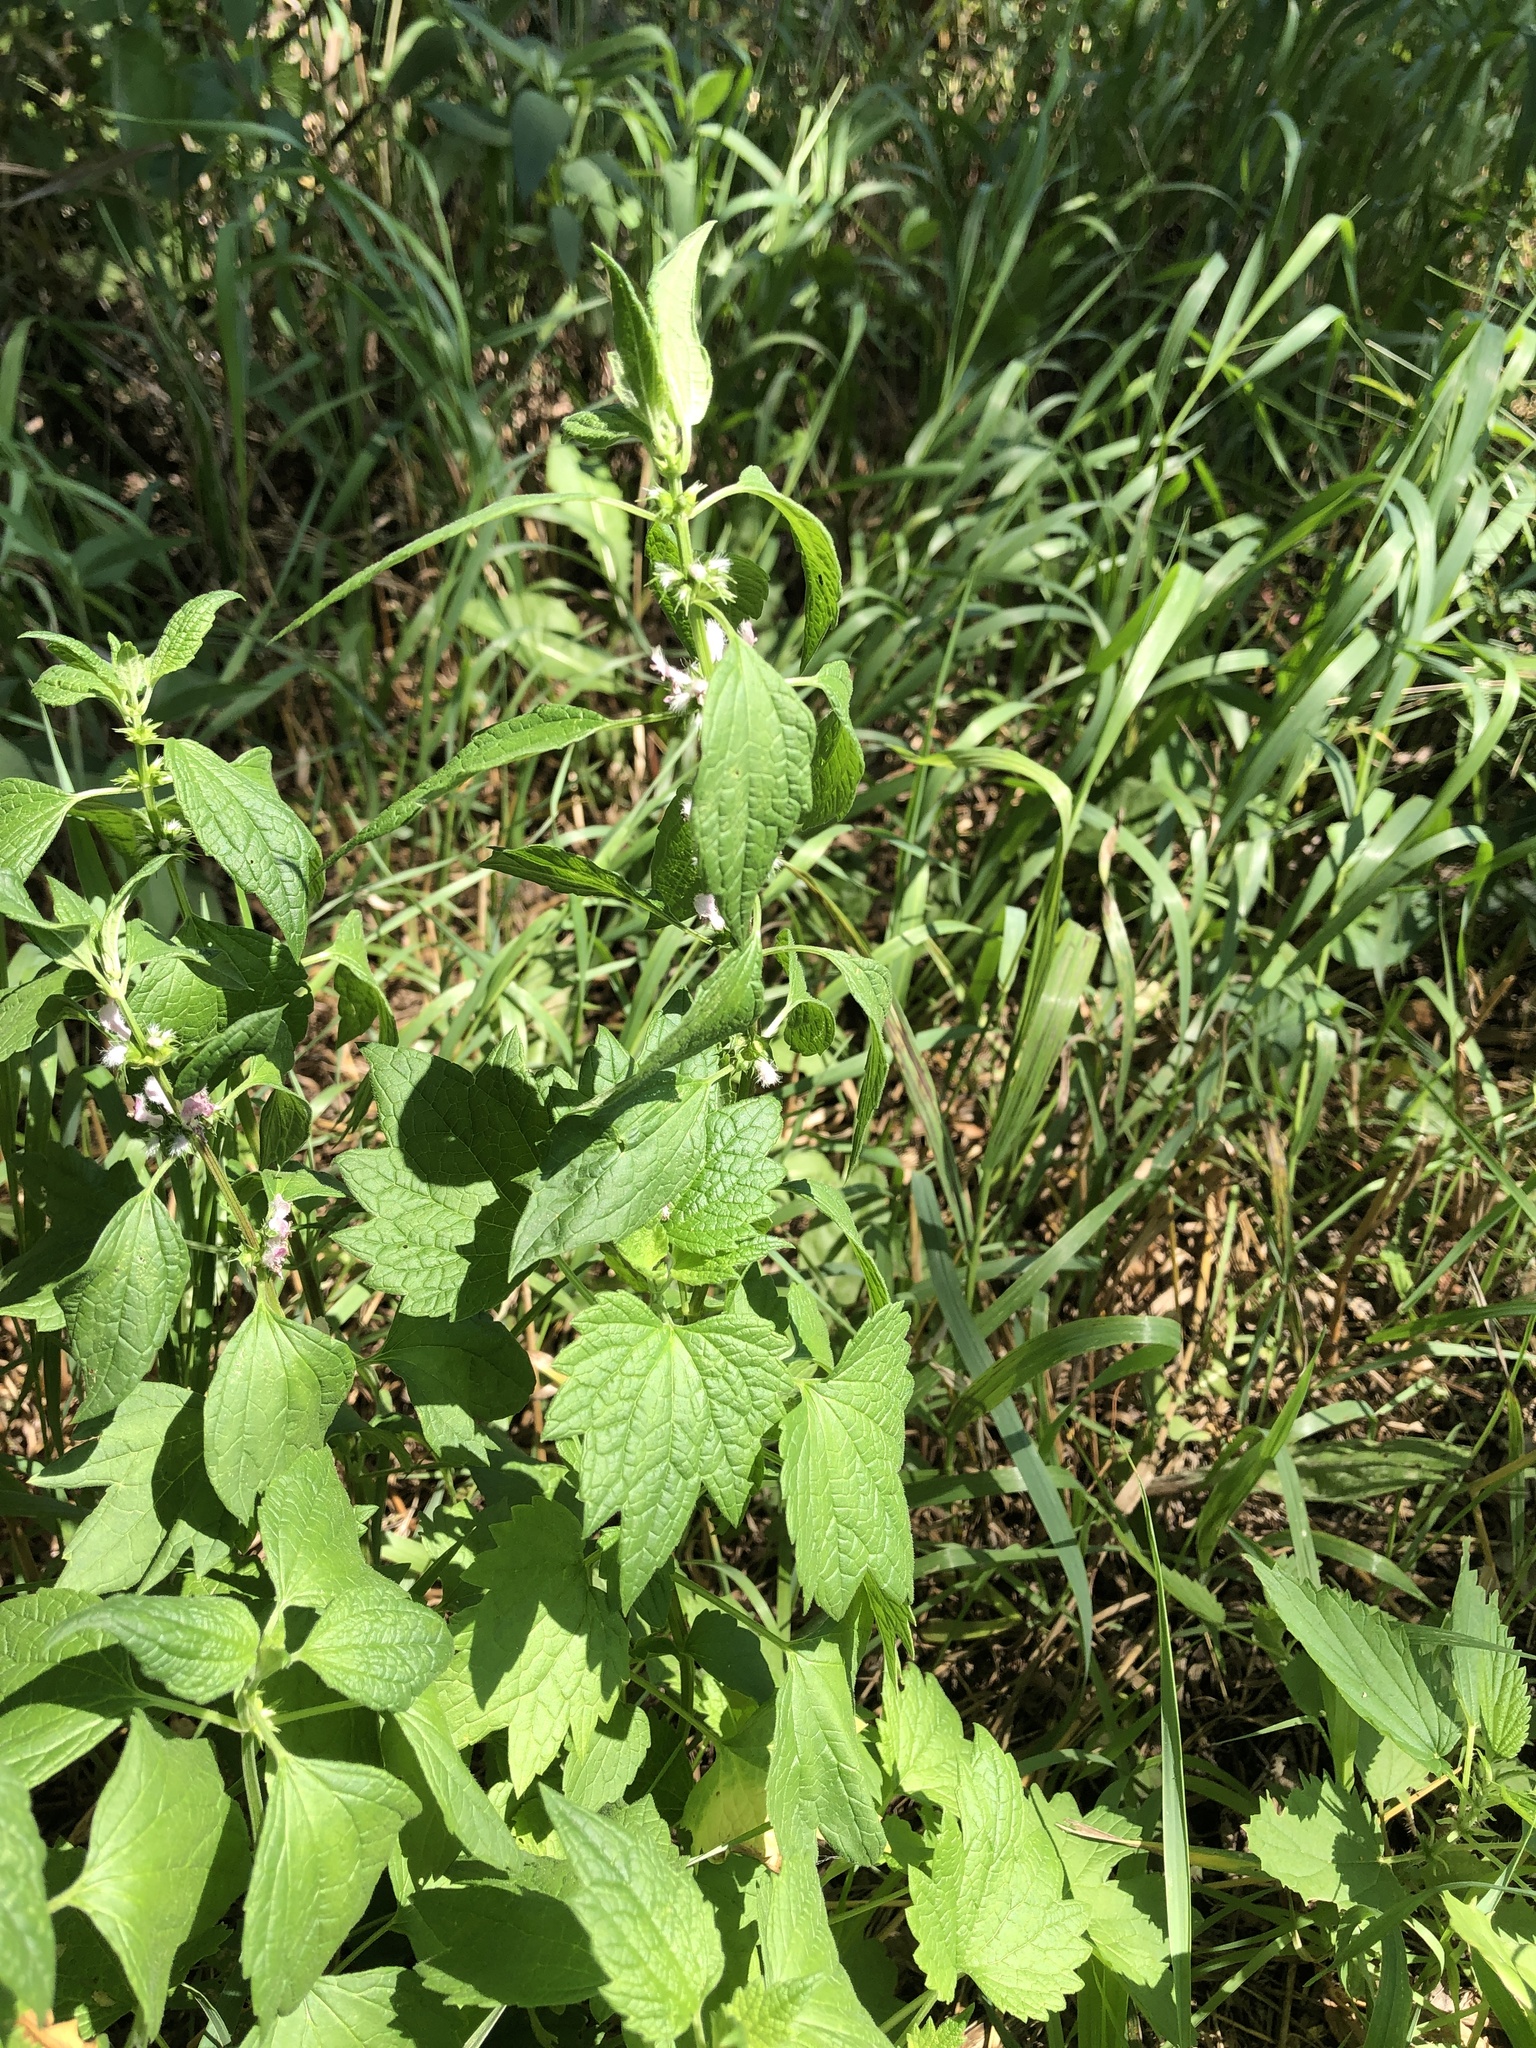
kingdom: Plantae
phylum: Tracheophyta
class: Magnoliopsida
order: Lamiales
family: Lamiaceae
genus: Leonurus
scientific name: Leonurus cardiaca
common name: Motherwort
